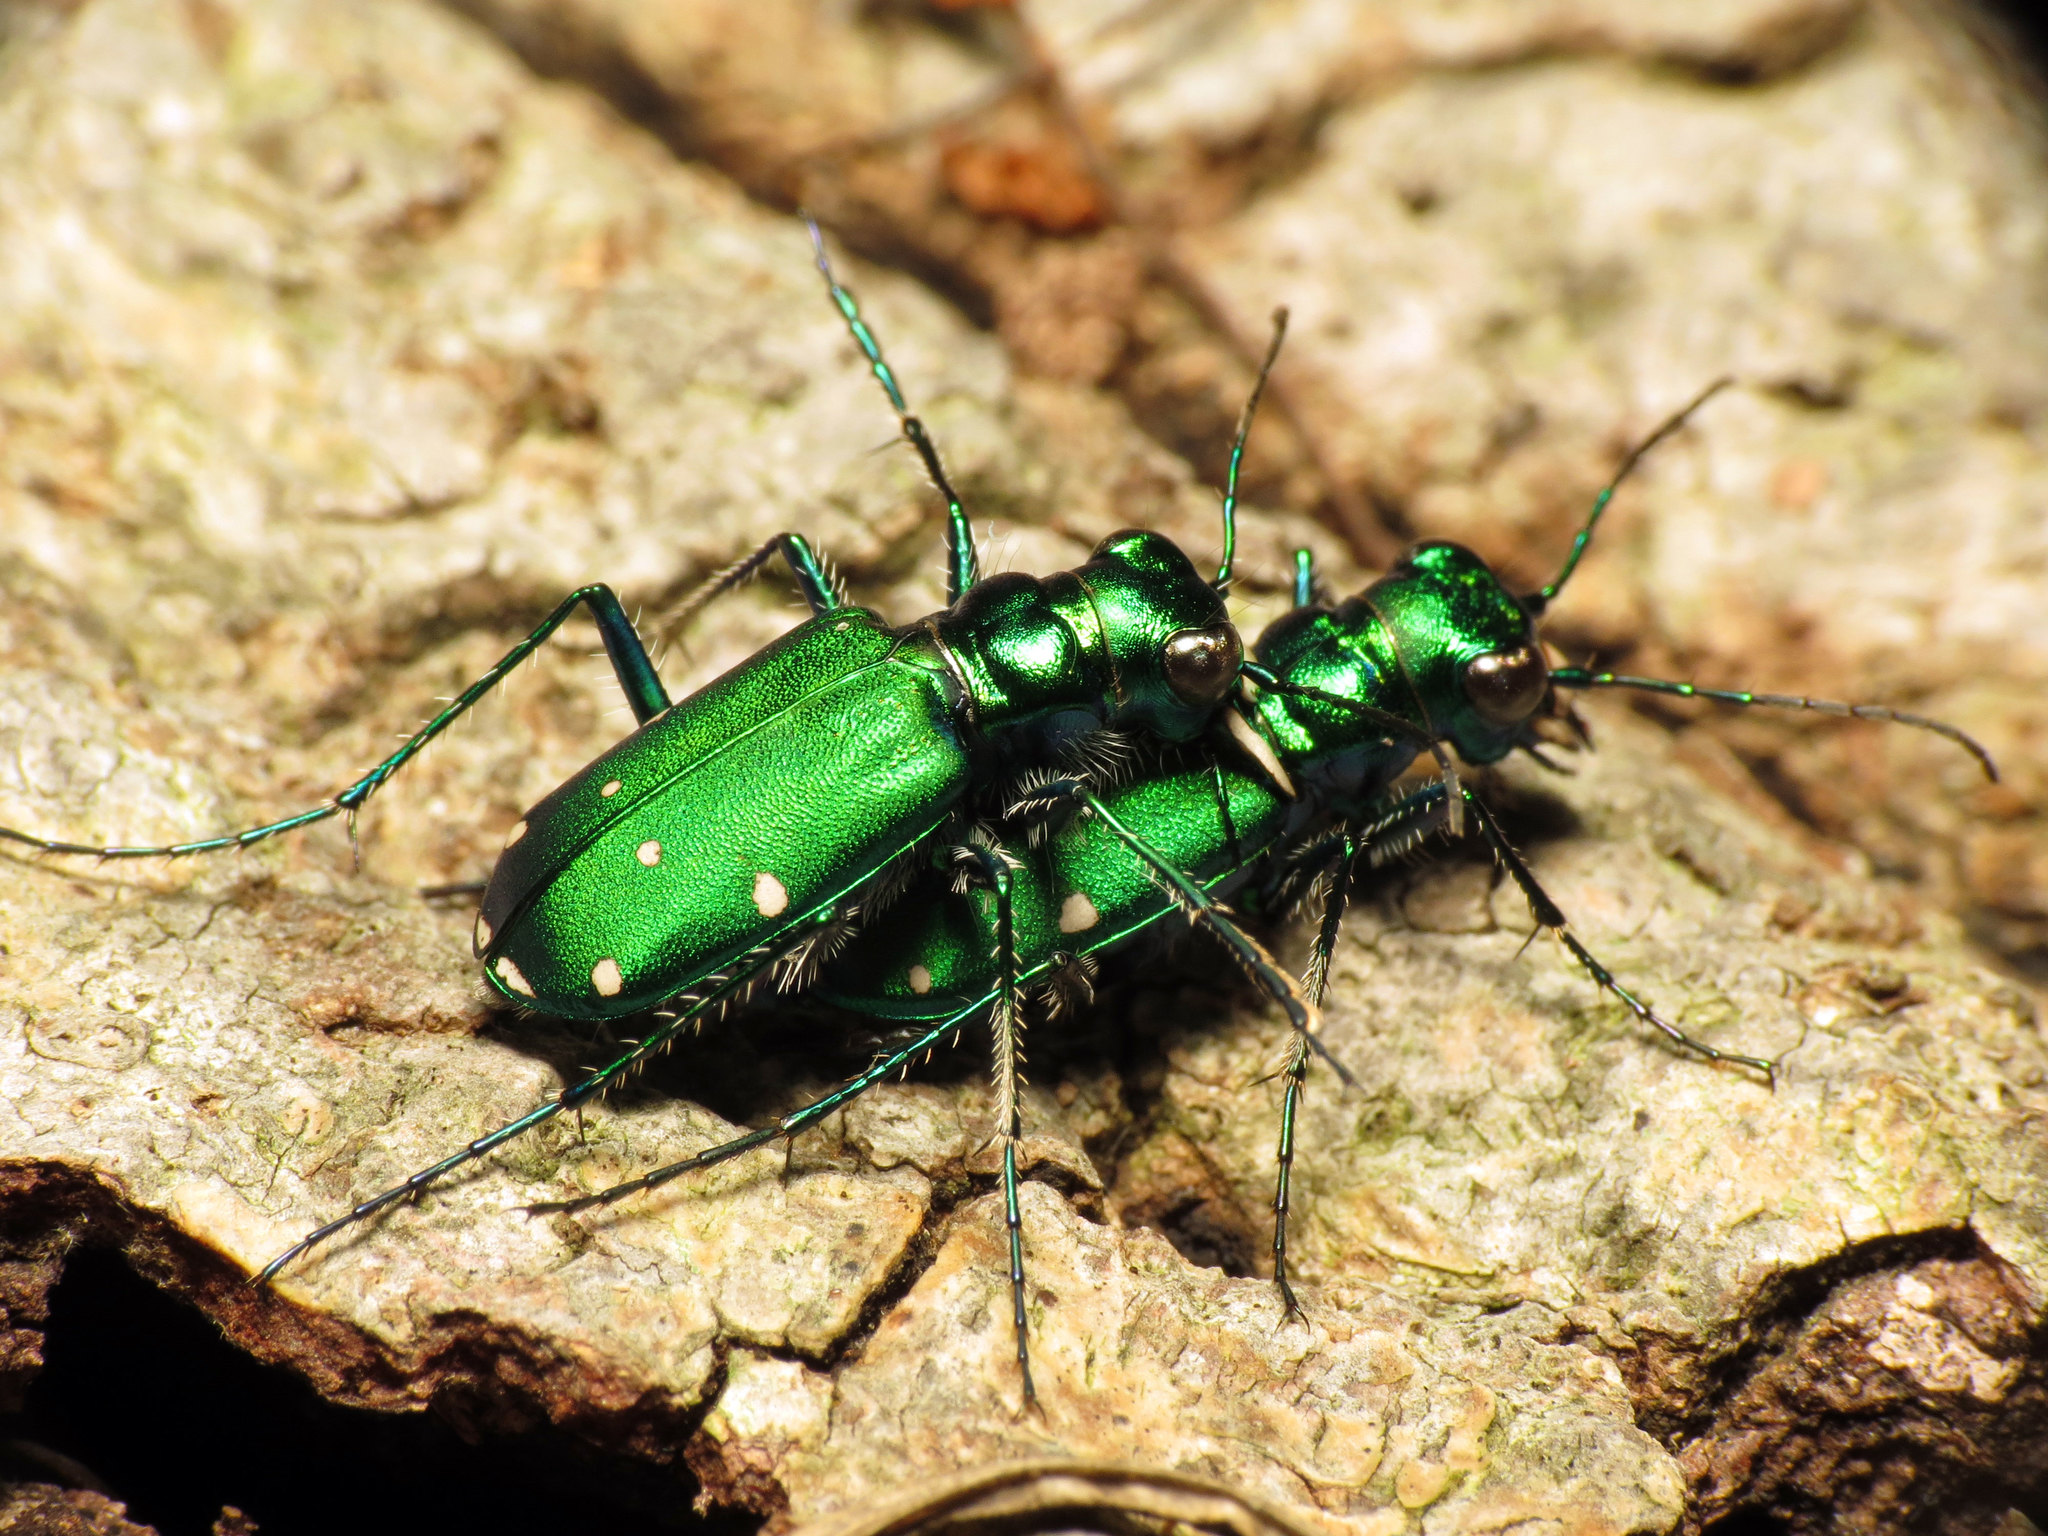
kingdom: Animalia
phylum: Arthropoda
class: Insecta
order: Coleoptera
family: Carabidae
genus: Cicindela
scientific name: Cicindela sexguttata
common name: Six-spotted tiger beetle
